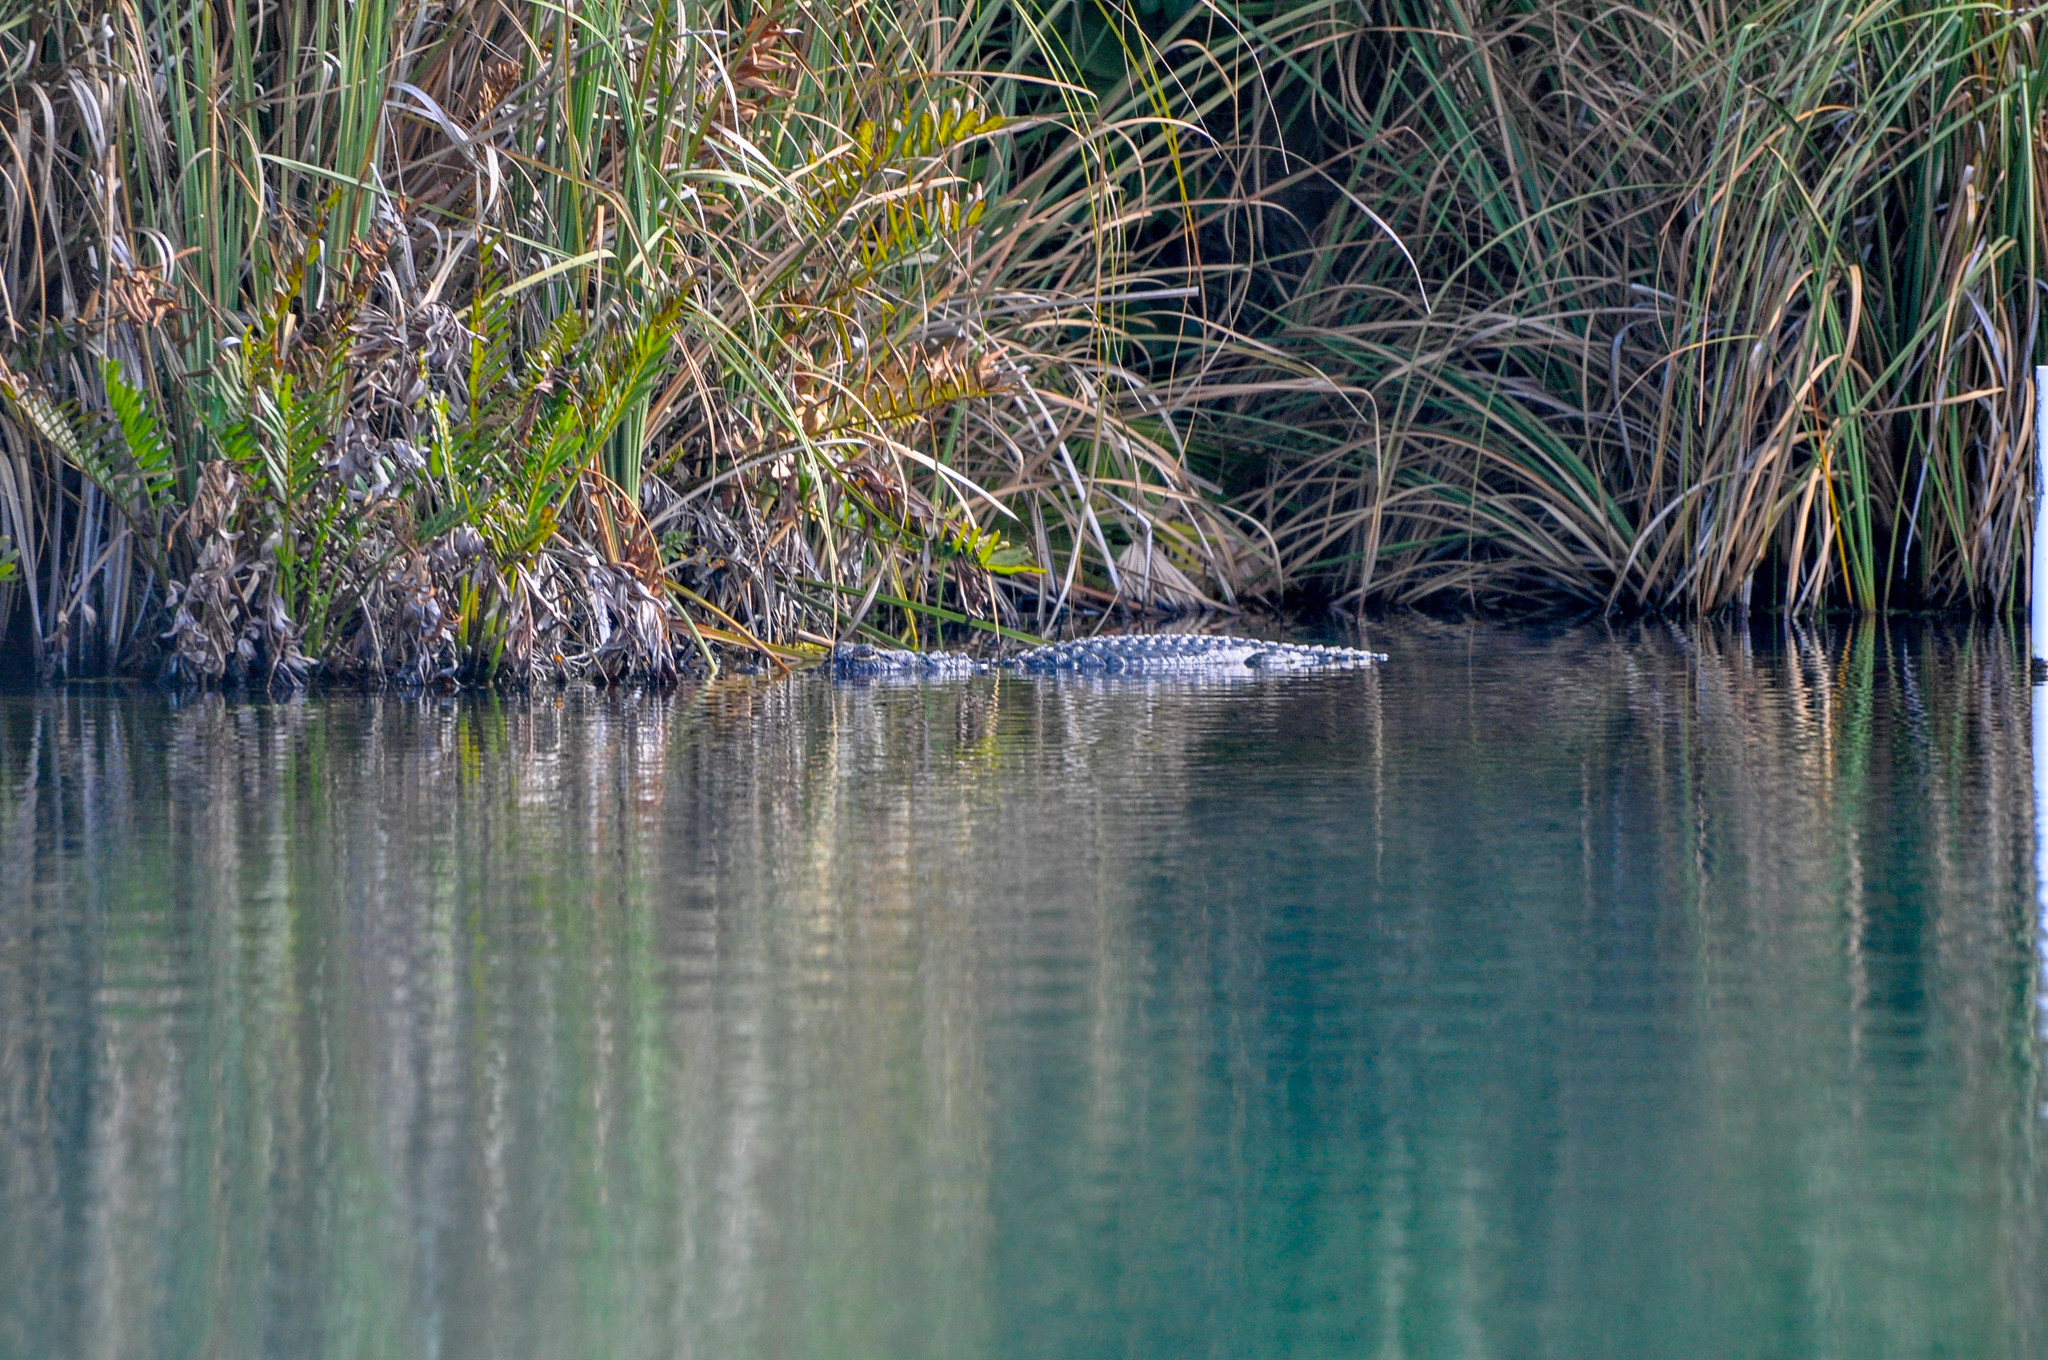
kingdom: Animalia
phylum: Chordata
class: Crocodylia
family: Alligatoridae
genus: Alligator
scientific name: Alligator mississippiensis
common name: American alligator
